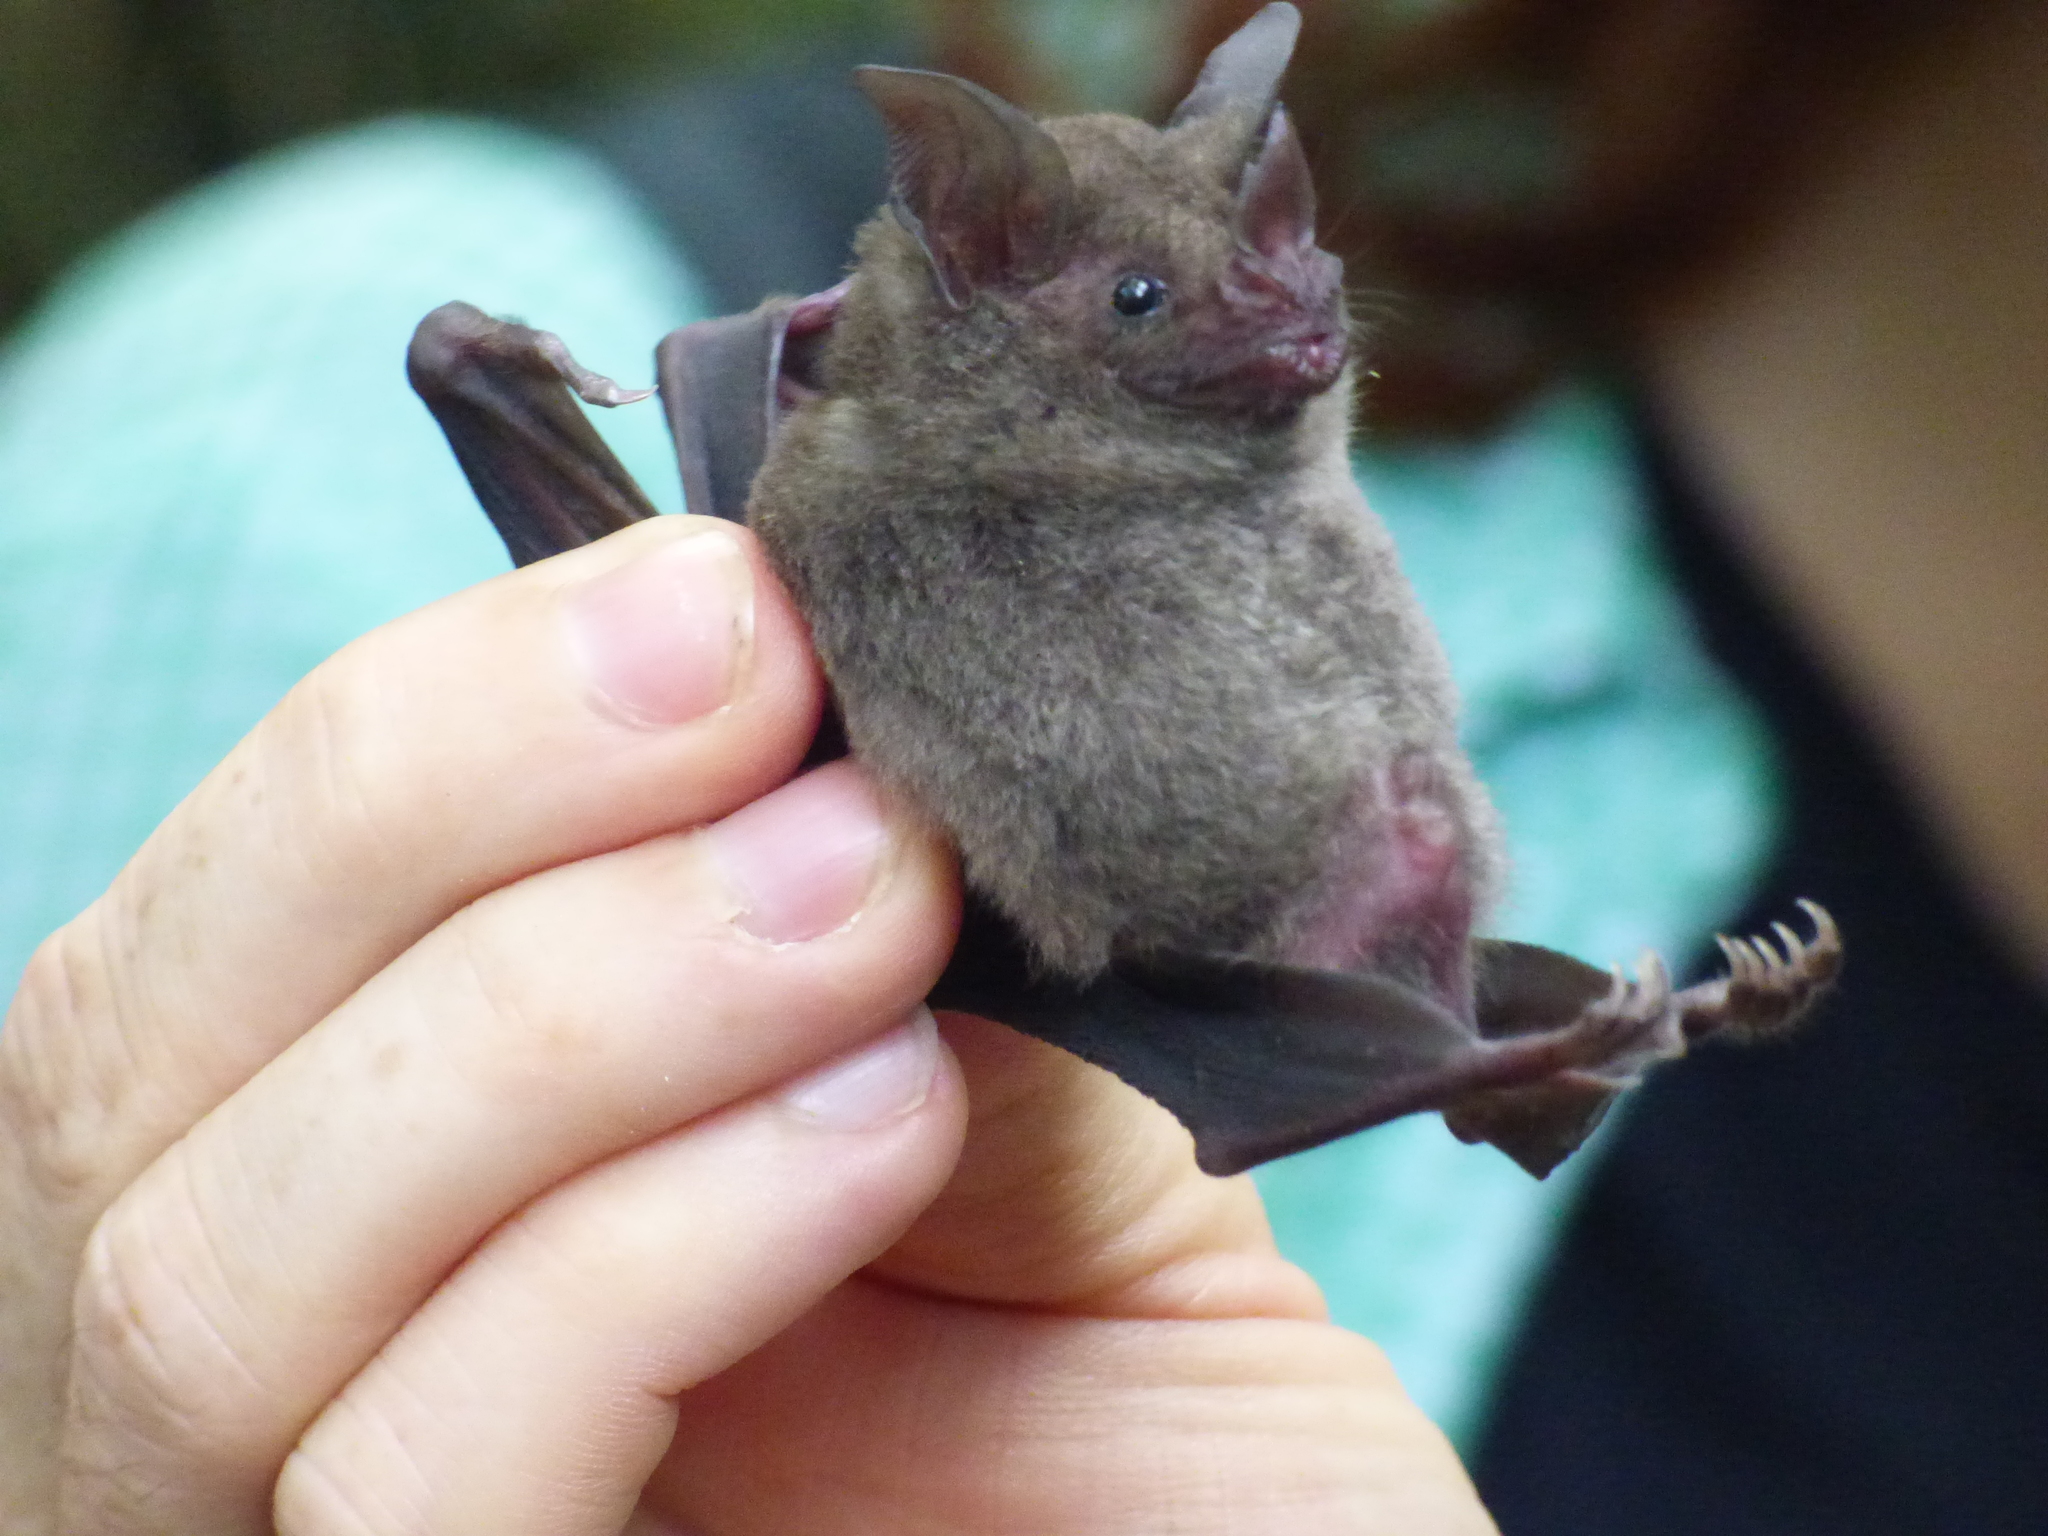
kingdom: Animalia
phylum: Chordata
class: Mammalia
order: Chiroptera
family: Phyllostomidae
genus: Carollia
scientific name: Carollia perspicillata
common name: Seba's short-tailed bat
